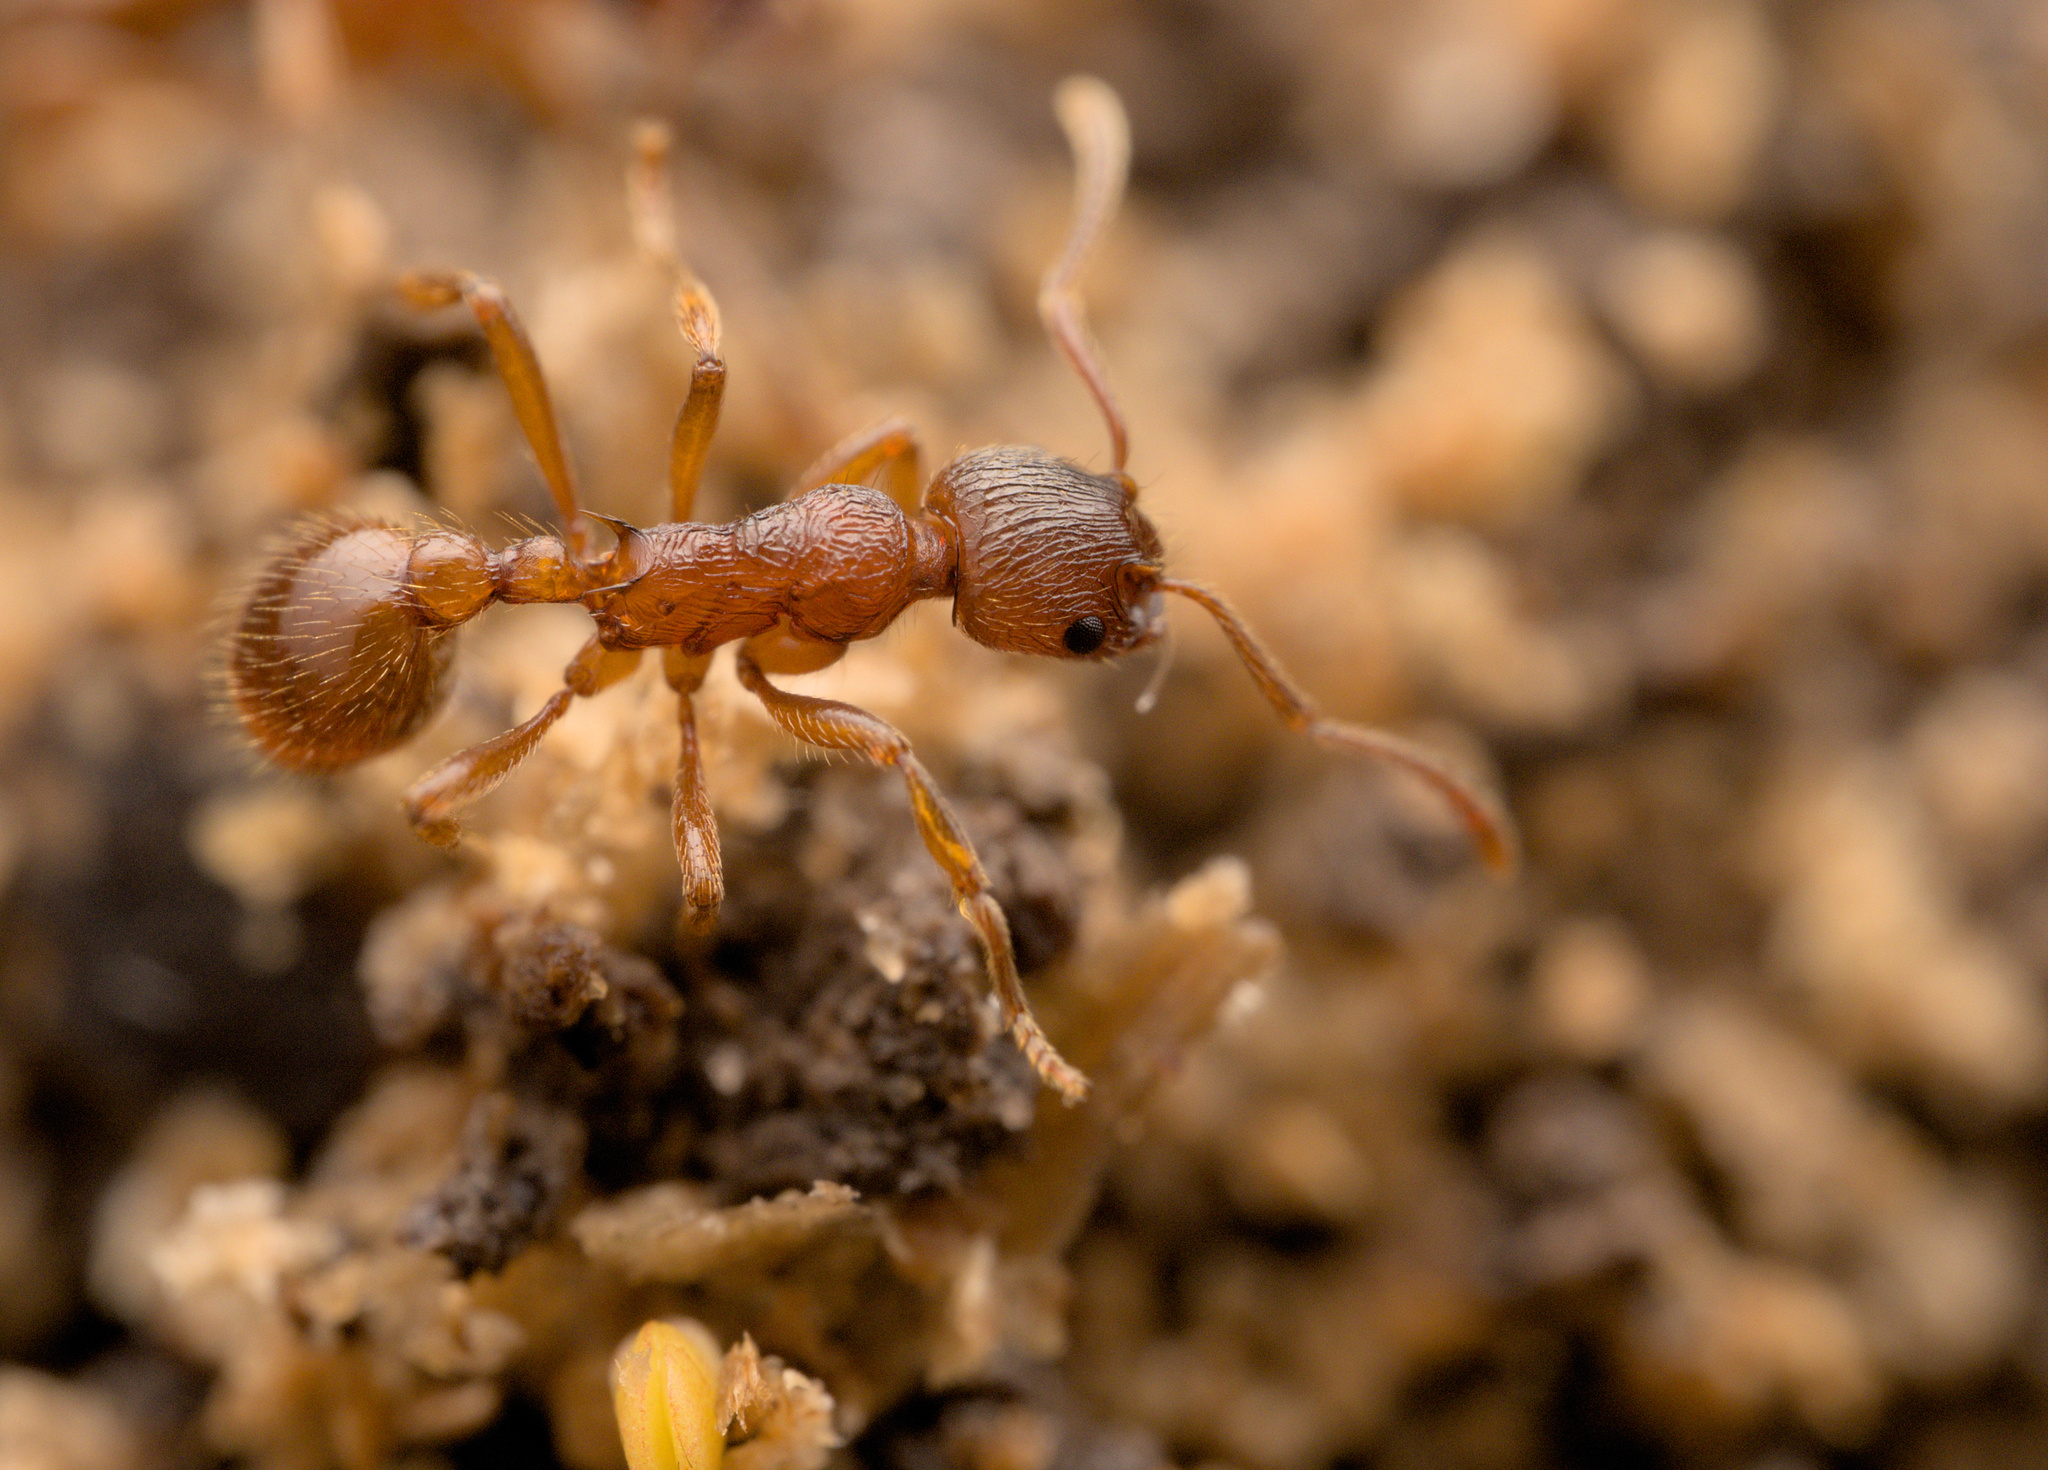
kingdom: Animalia
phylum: Arthropoda
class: Insecta
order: Hymenoptera
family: Formicidae
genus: Myrmica
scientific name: Myrmica rubra
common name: European fire ant
